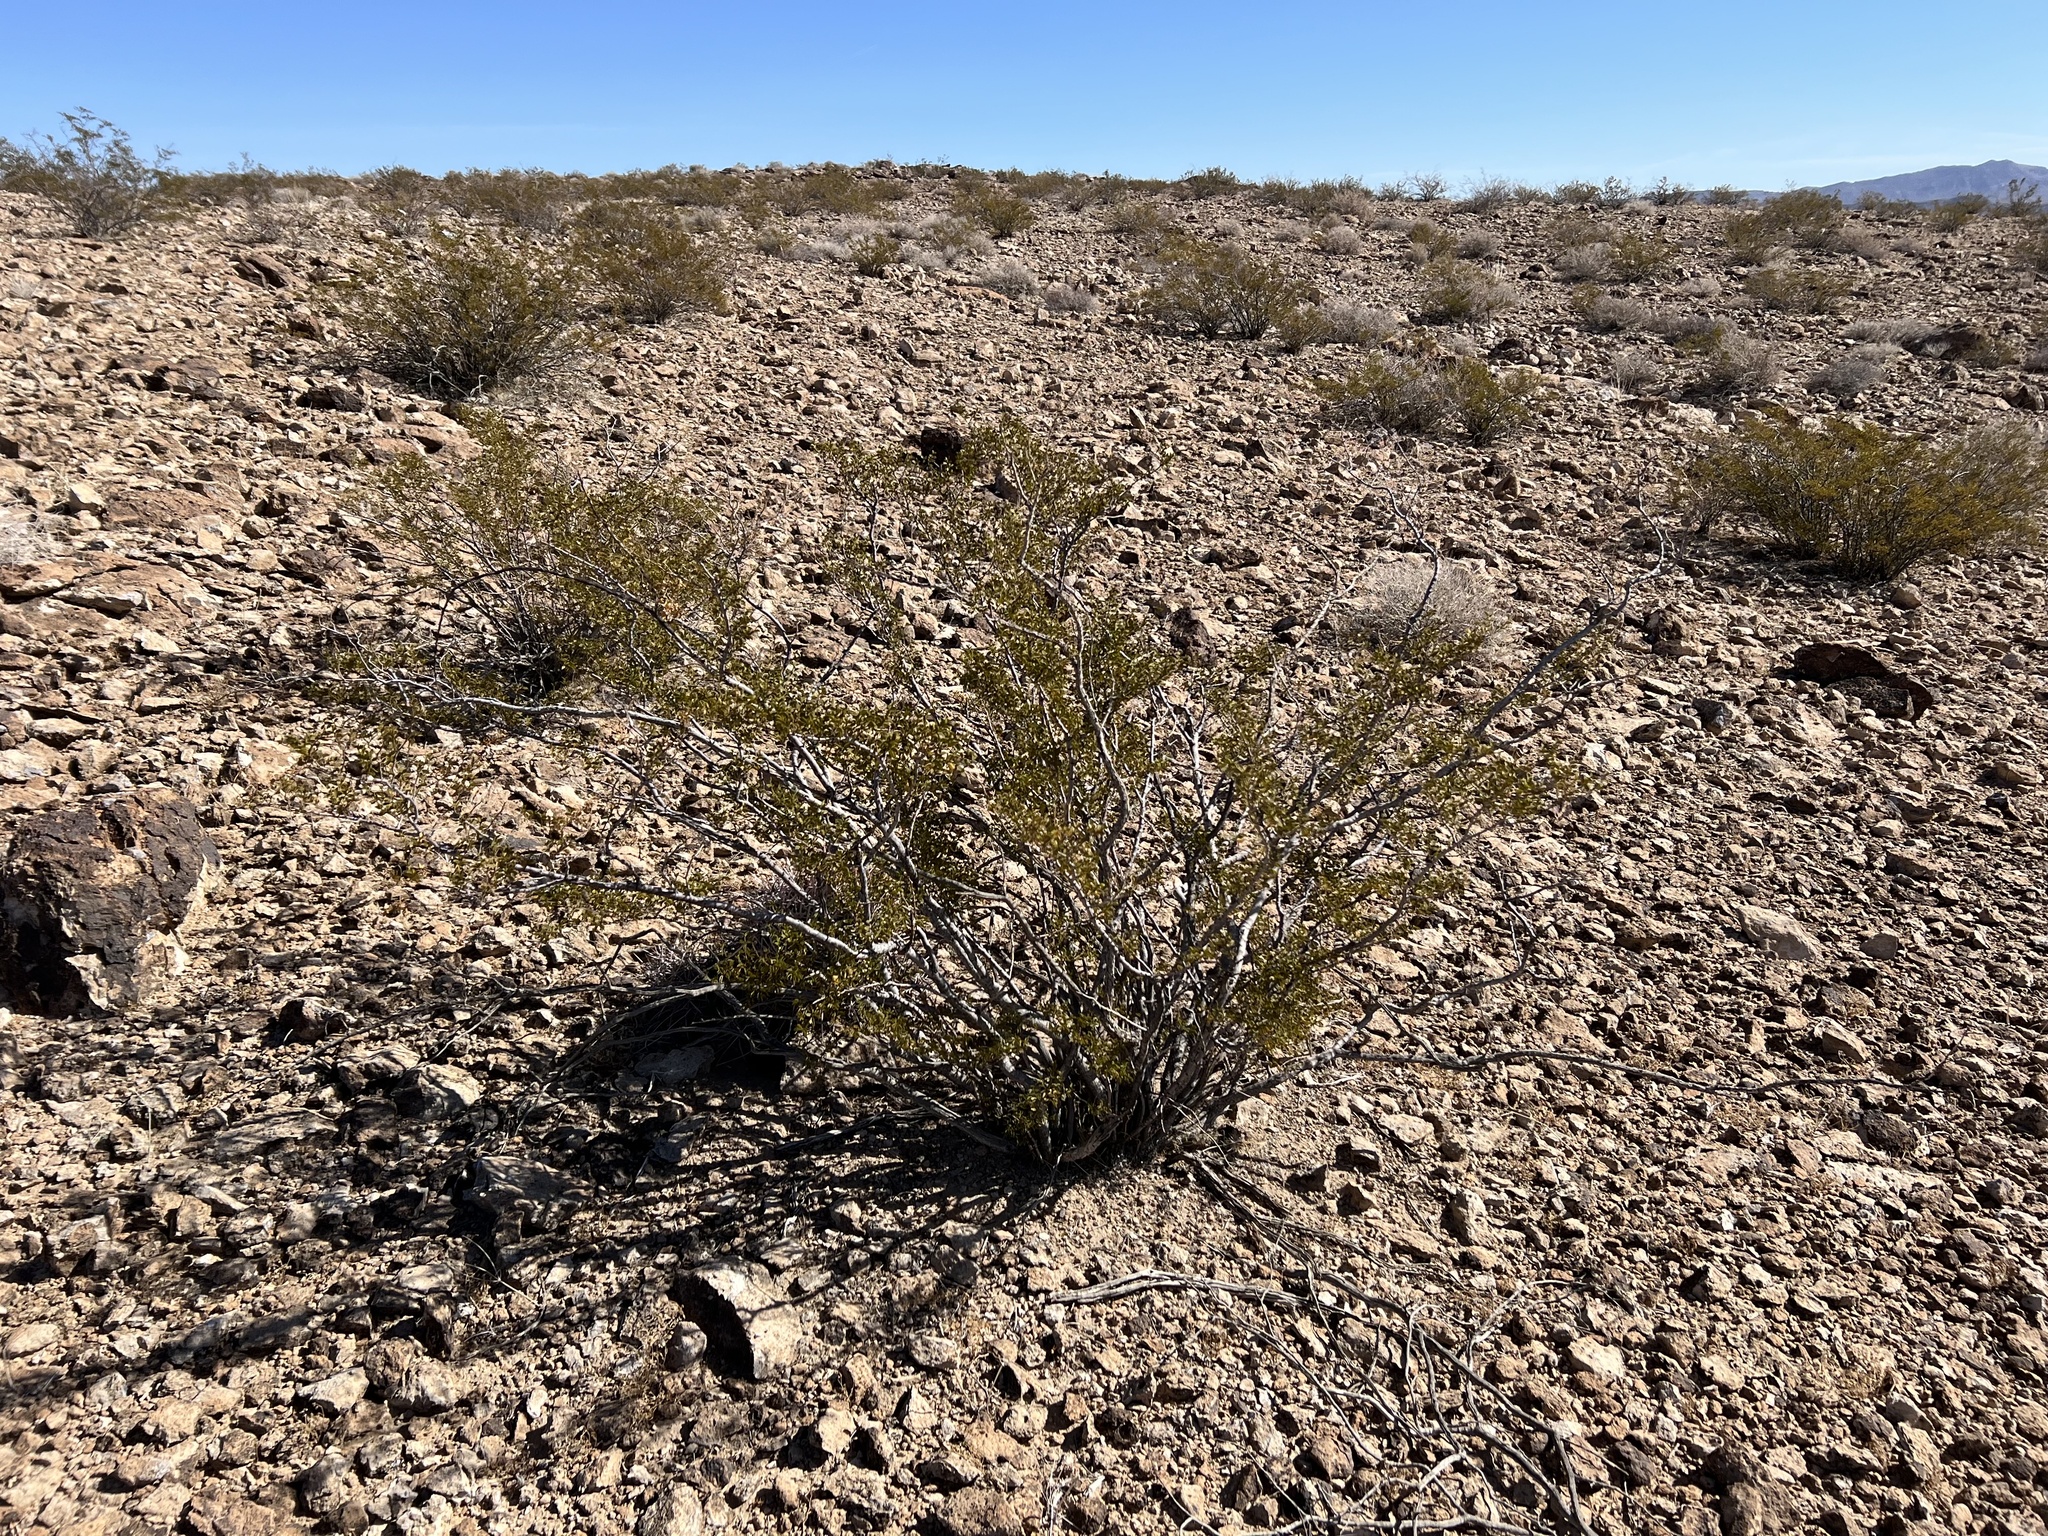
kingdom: Plantae
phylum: Tracheophyta
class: Magnoliopsida
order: Zygophyllales
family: Zygophyllaceae
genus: Larrea
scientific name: Larrea tridentata
